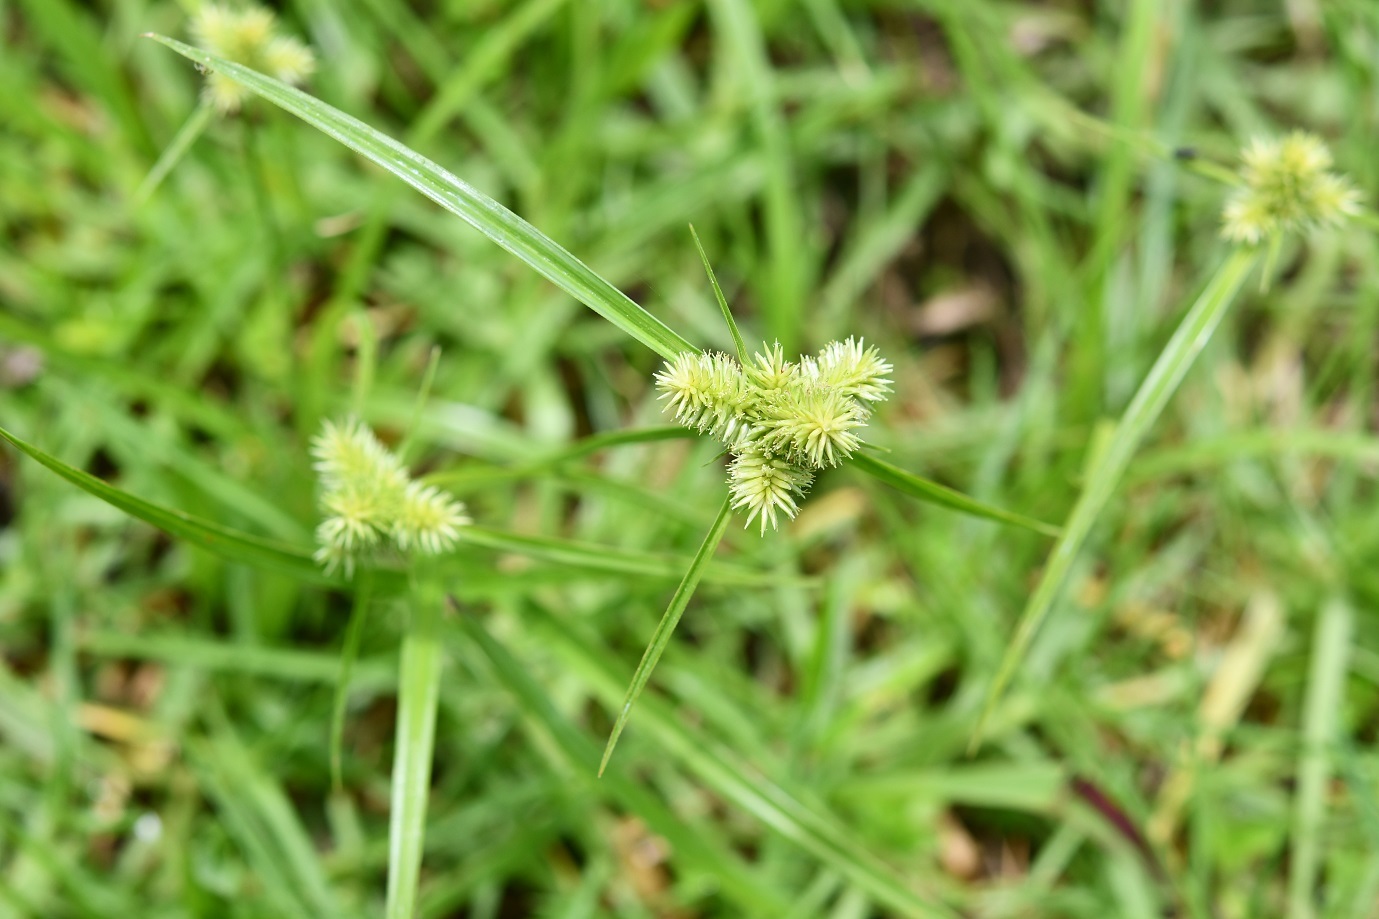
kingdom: Plantae
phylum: Tracheophyta
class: Liliopsida
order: Poales
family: Cyperaceae
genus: Cyperus
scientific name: Cyperus svensonii
